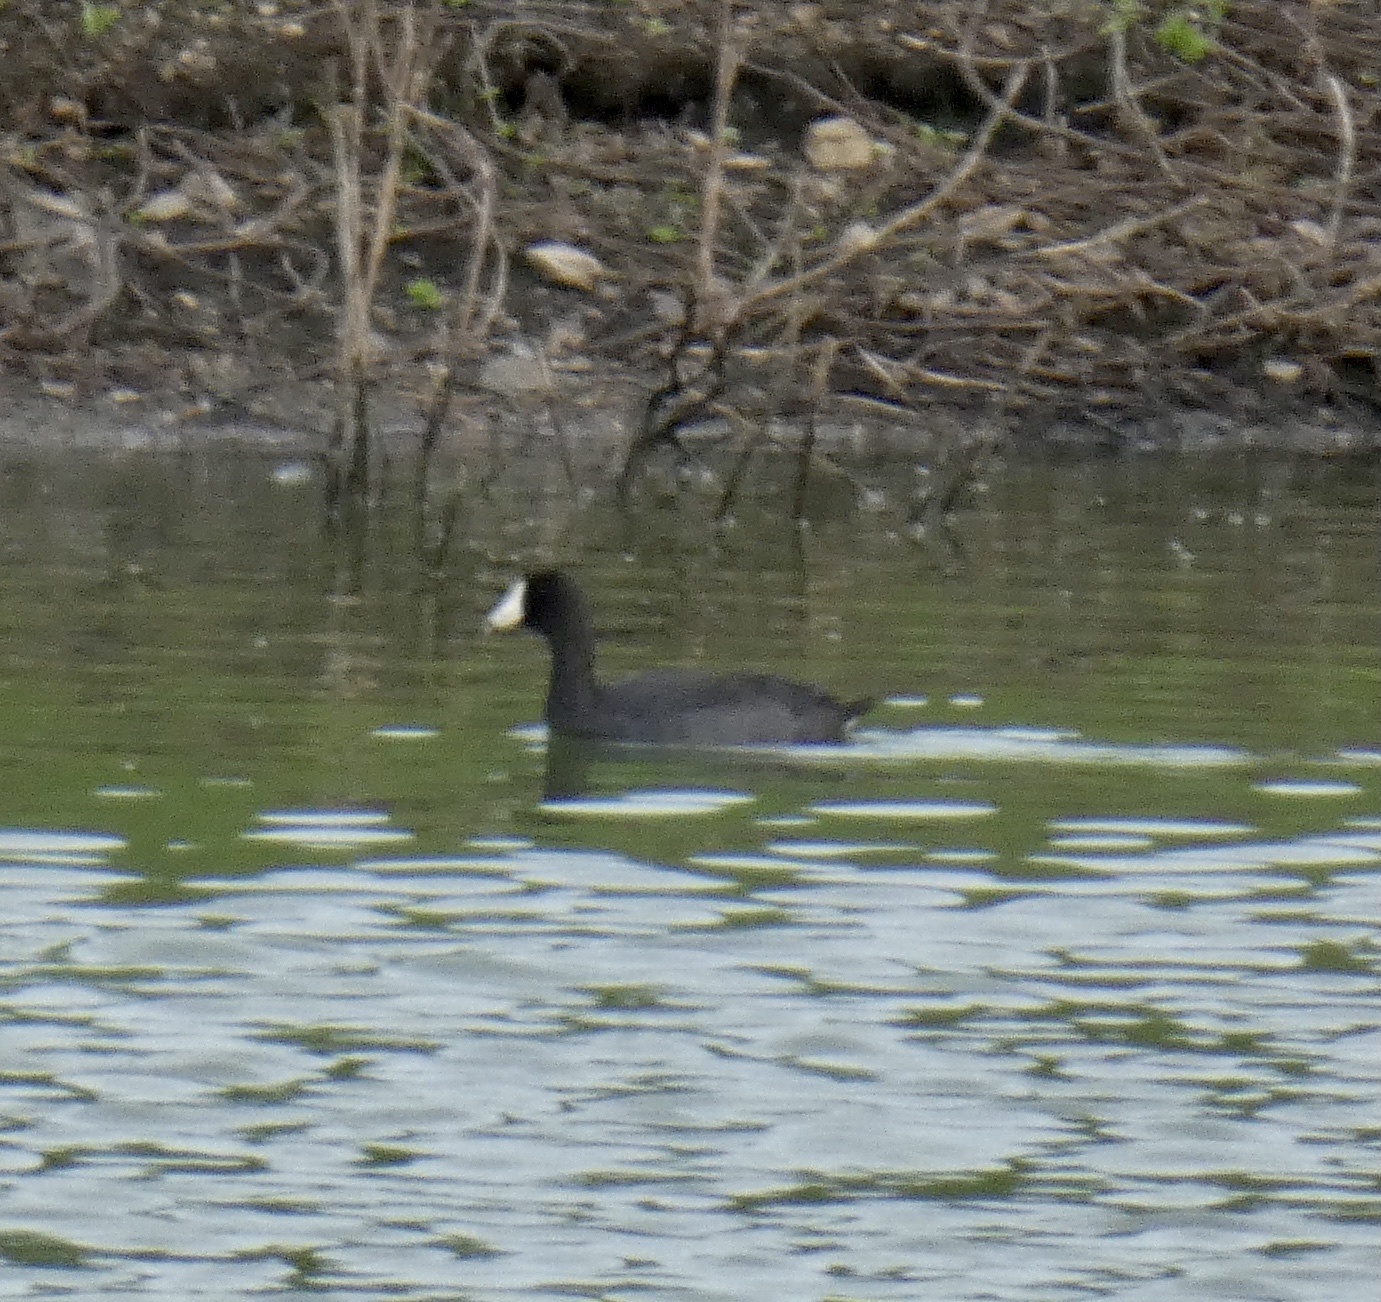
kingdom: Animalia
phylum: Chordata
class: Aves
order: Gruiformes
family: Rallidae
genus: Fulica
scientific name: Fulica americana
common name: American coot
